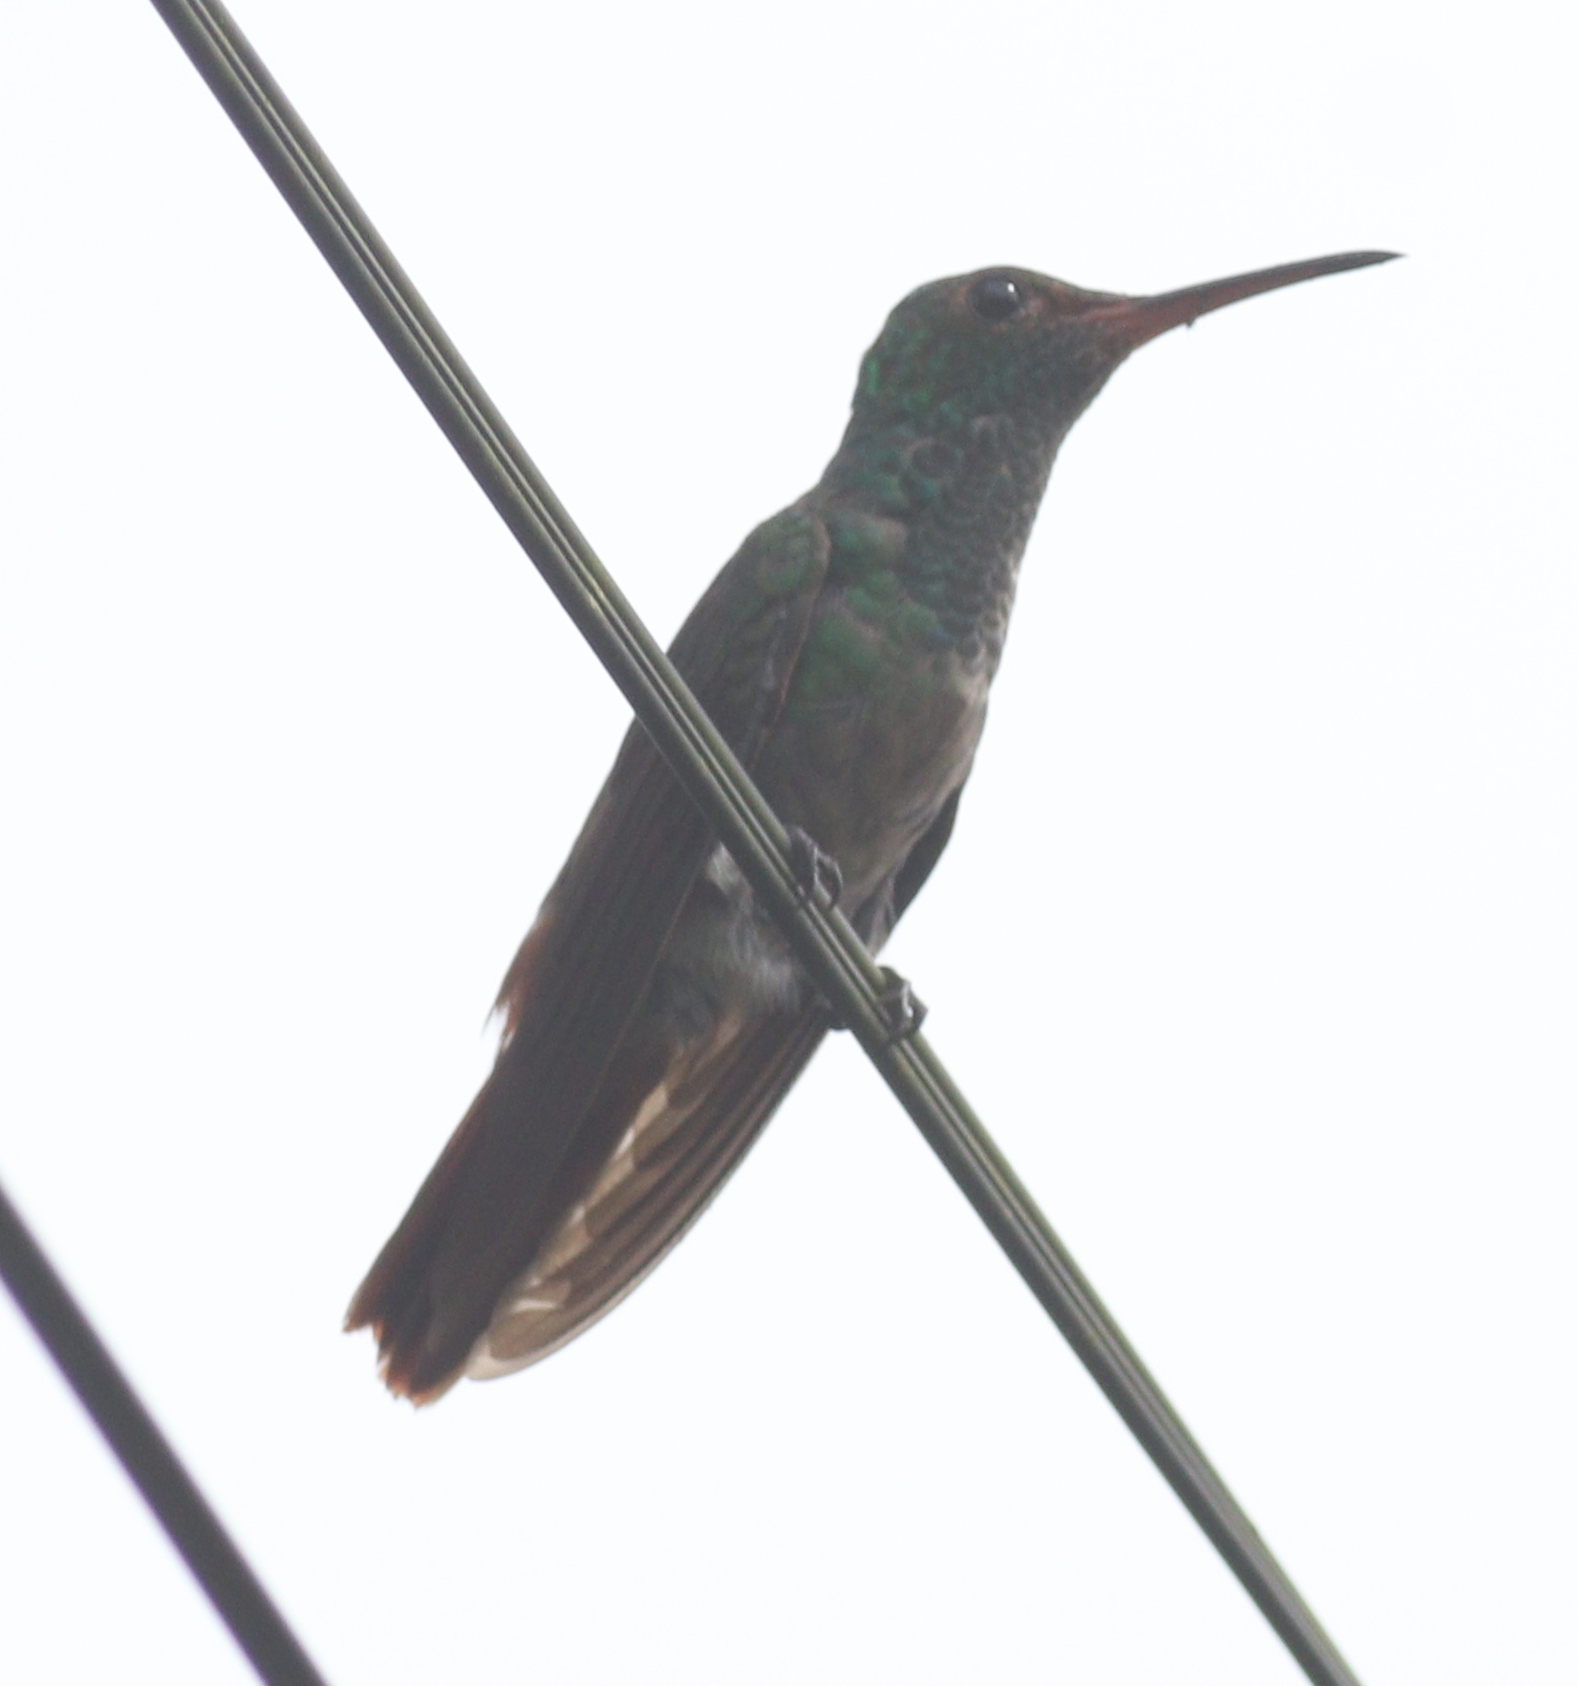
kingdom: Animalia
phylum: Chordata
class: Aves
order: Apodiformes
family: Trochilidae
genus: Amazilia
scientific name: Amazilia tzacatl
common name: Rufous-tailed hummingbird
